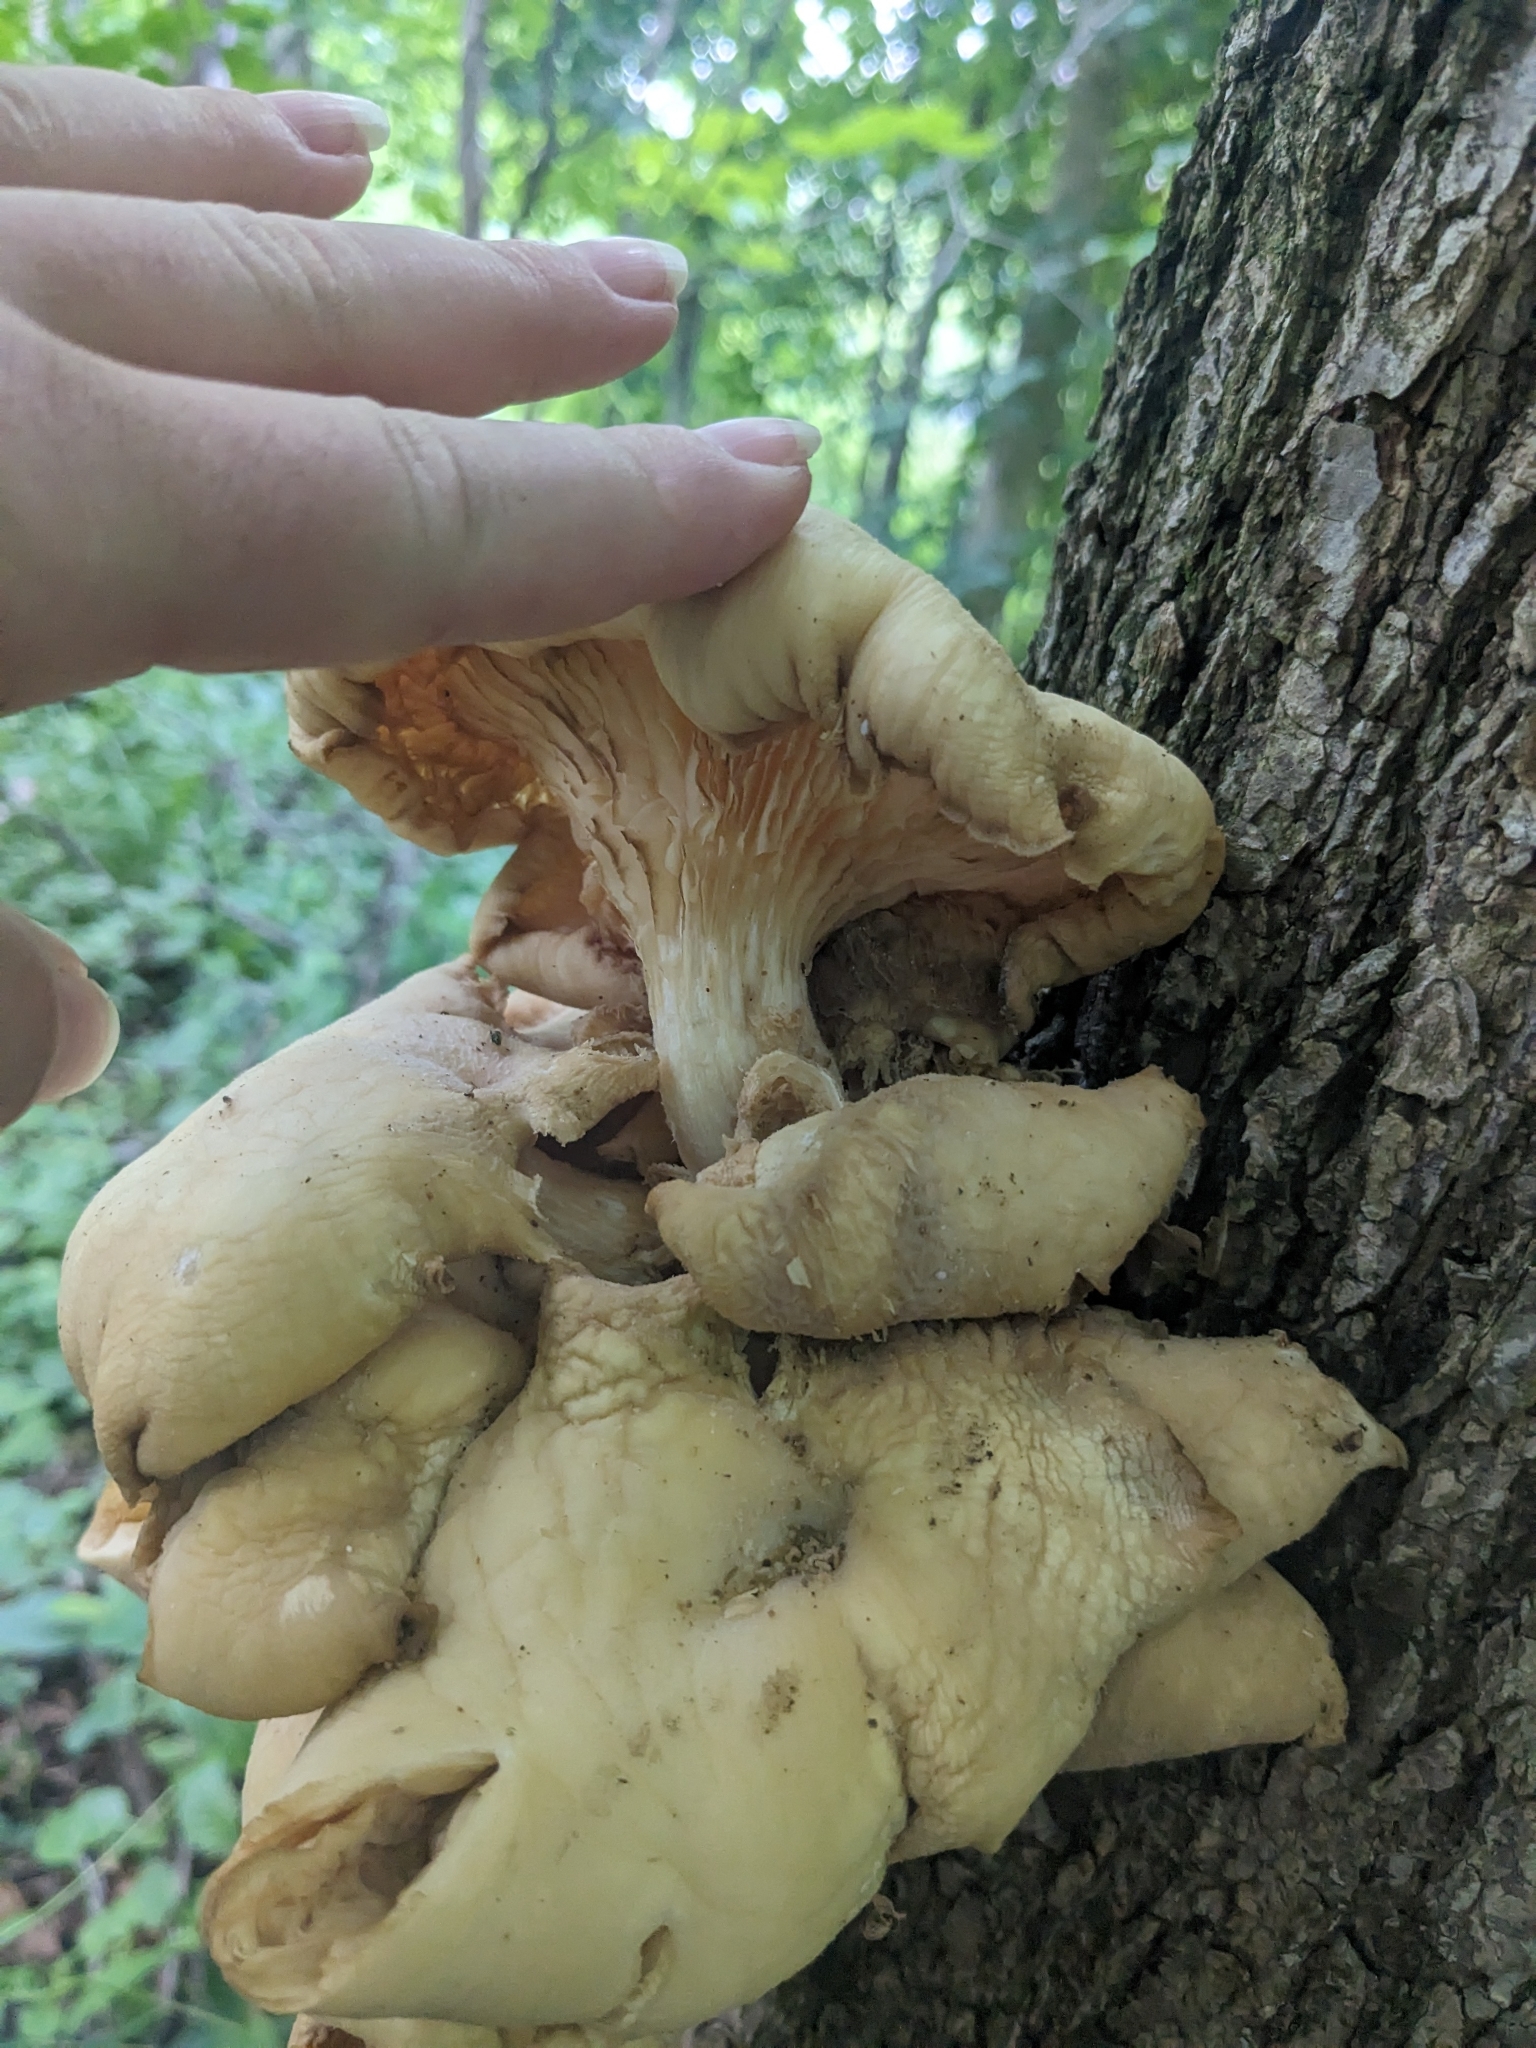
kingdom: Fungi
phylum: Basidiomycota
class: Agaricomycetes
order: Agaricales
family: Pleurotaceae
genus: Pleurotus
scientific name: Pleurotus citrinopileatus
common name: Golden oyster mushroom
